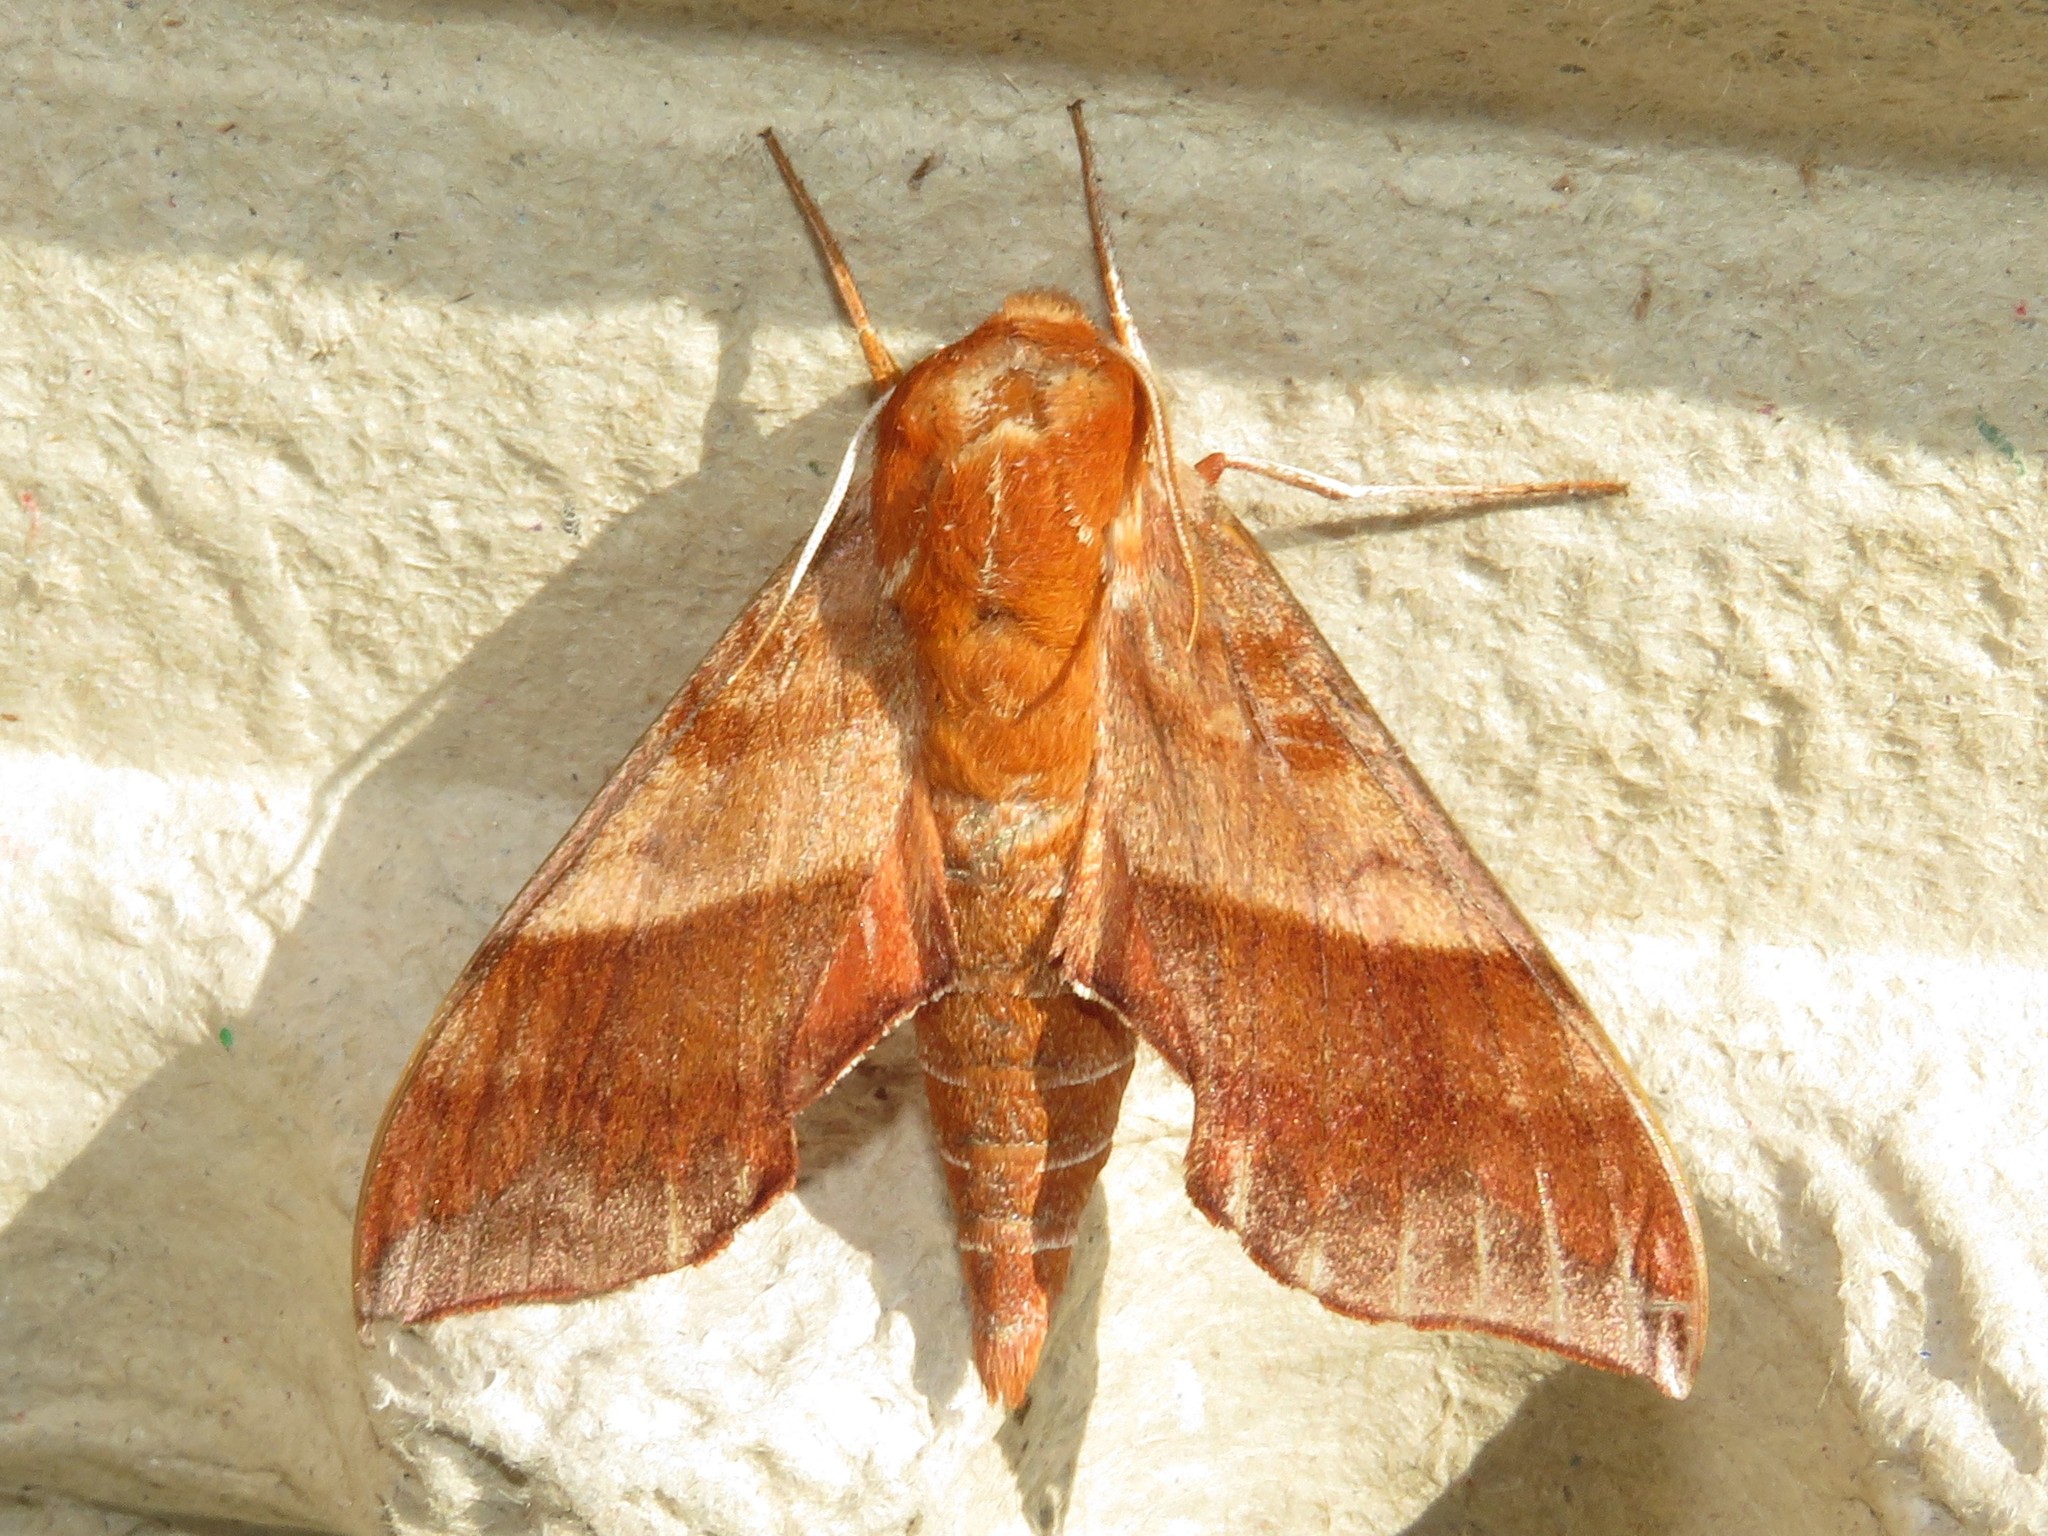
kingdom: Animalia
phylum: Arthropoda
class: Insecta
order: Lepidoptera
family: Sphingidae
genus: Darapsa
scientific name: Darapsa choerilus
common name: Azalea sphinx
